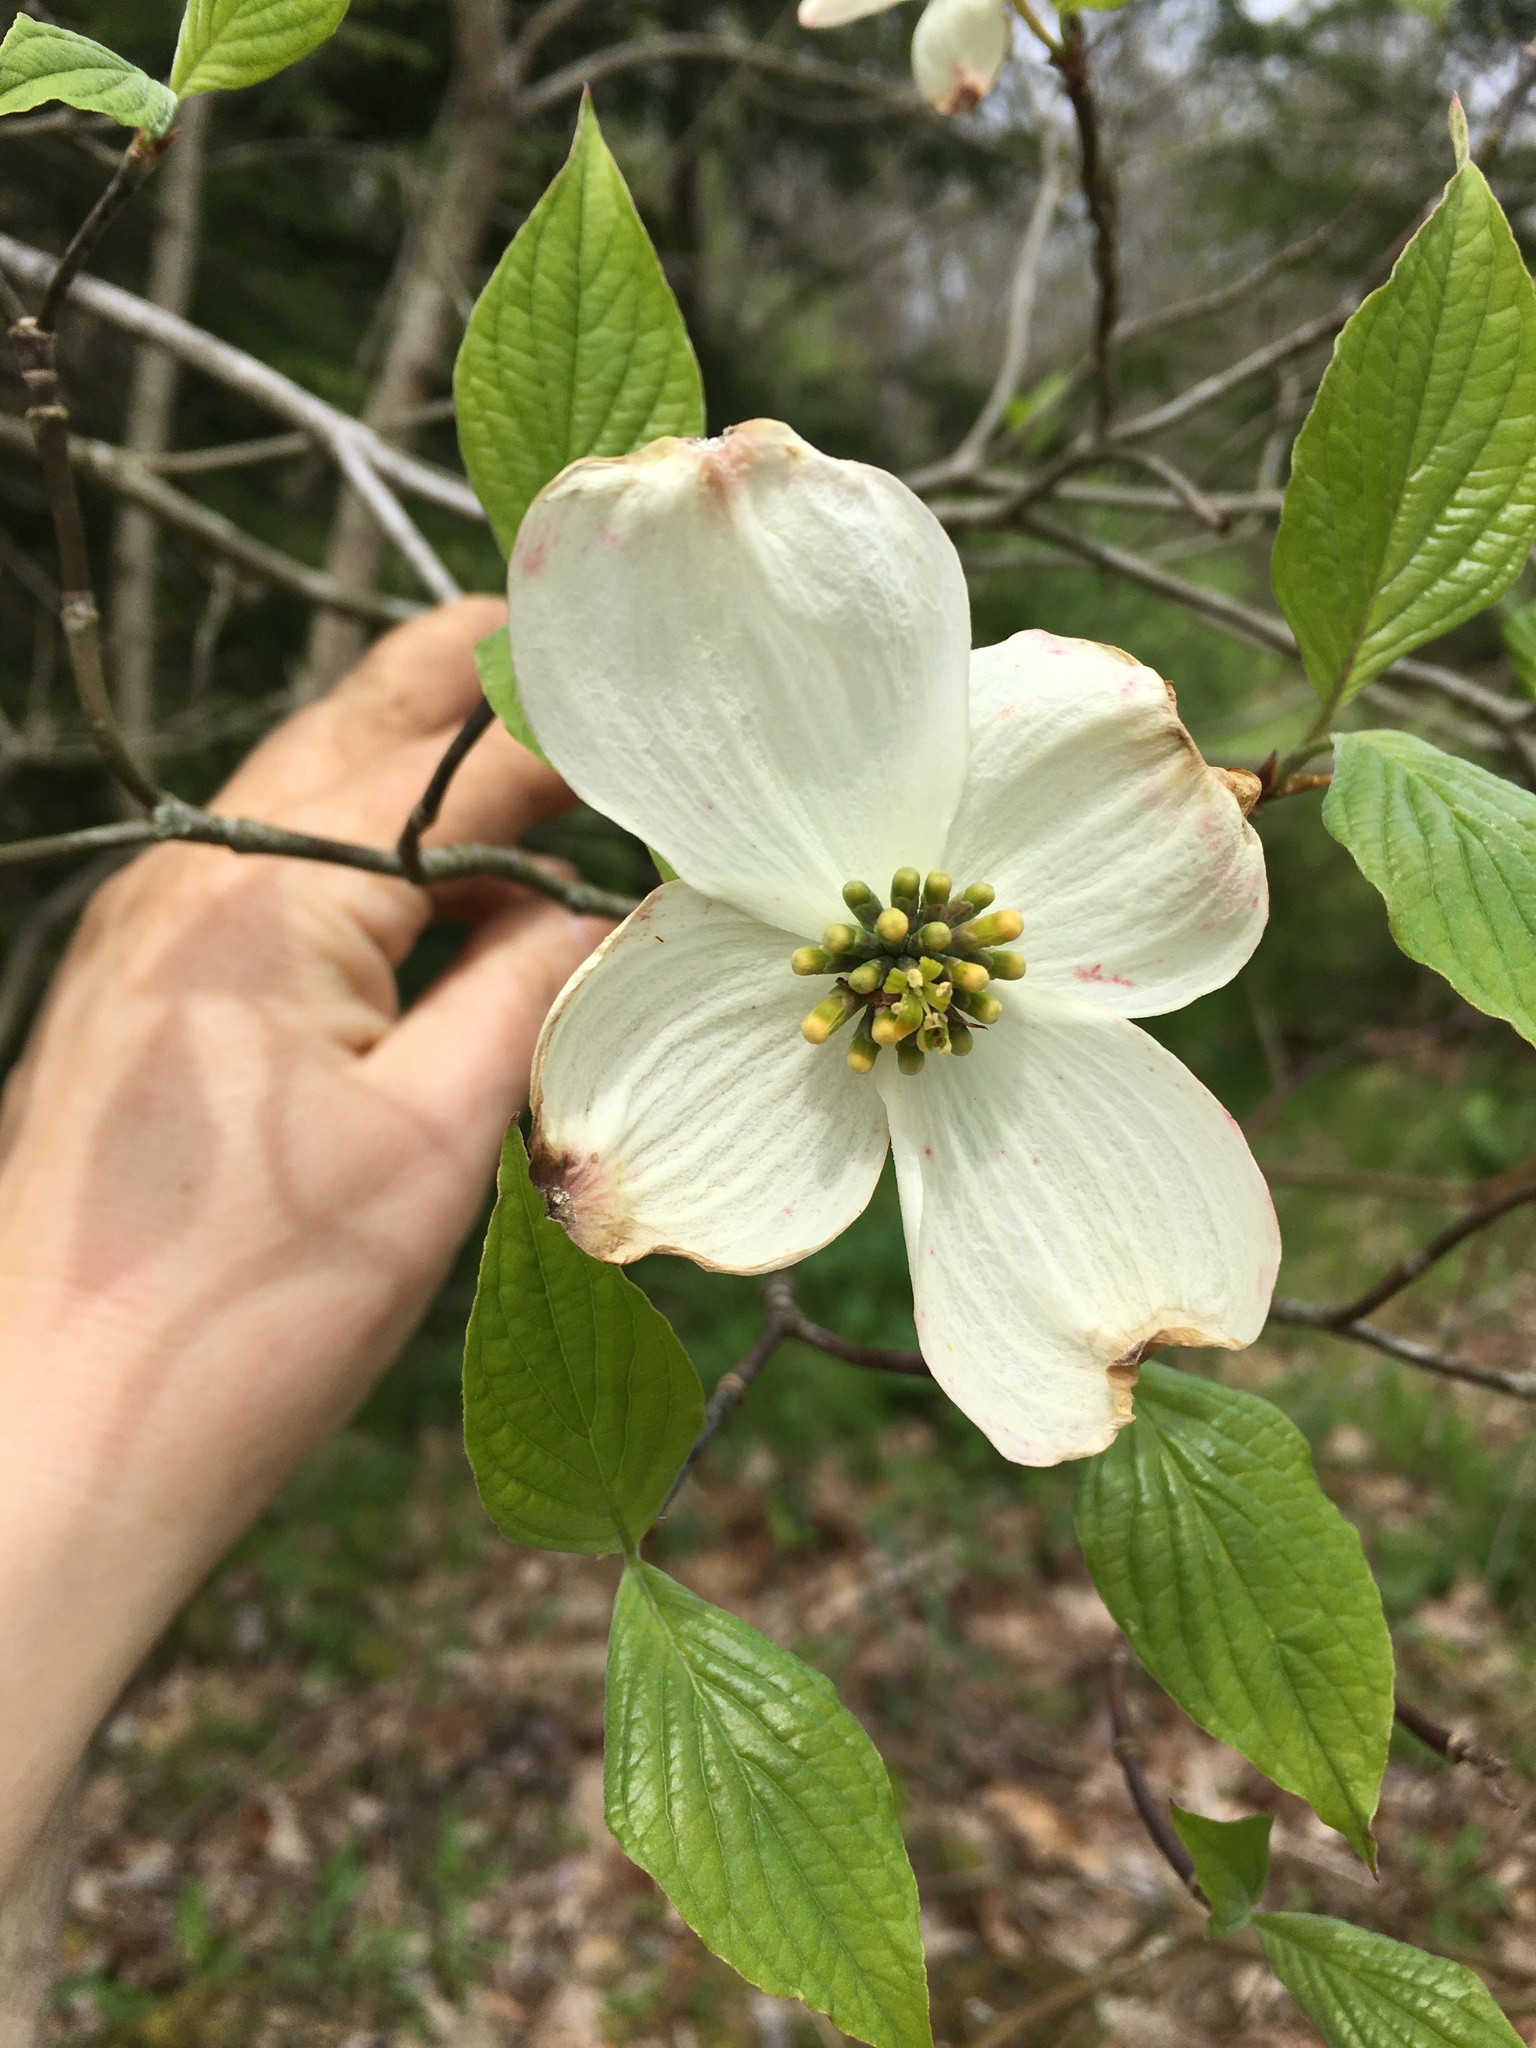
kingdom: Plantae
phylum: Tracheophyta
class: Magnoliopsida
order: Cornales
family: Cornaceae
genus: Cornus
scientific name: Cornus florida
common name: Flowering dogwood
